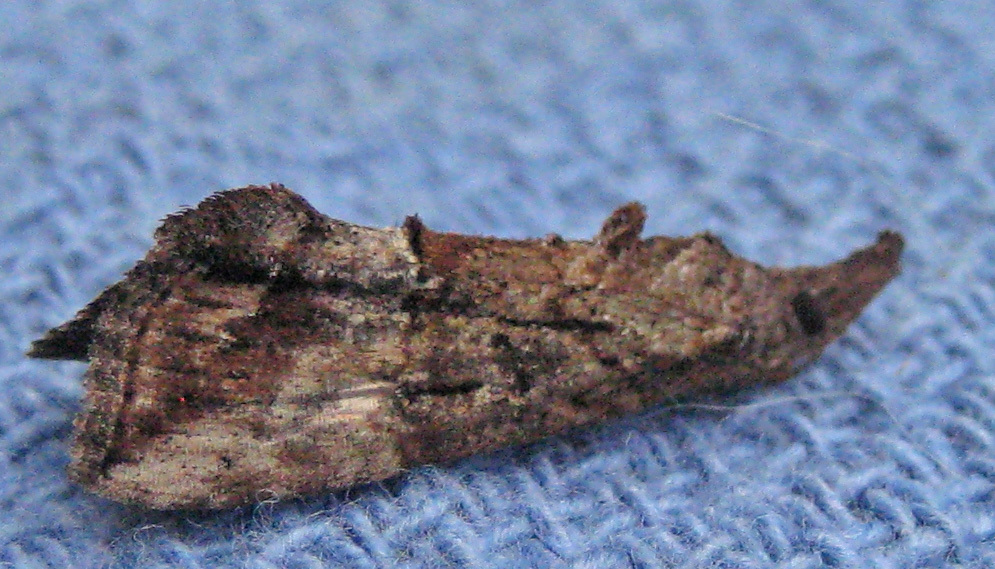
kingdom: Animalia
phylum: Arthropoda
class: Insecta
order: Lepidoptera
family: Erebidae
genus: Hypena
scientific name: Hypena scabra
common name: Green cloverworm
